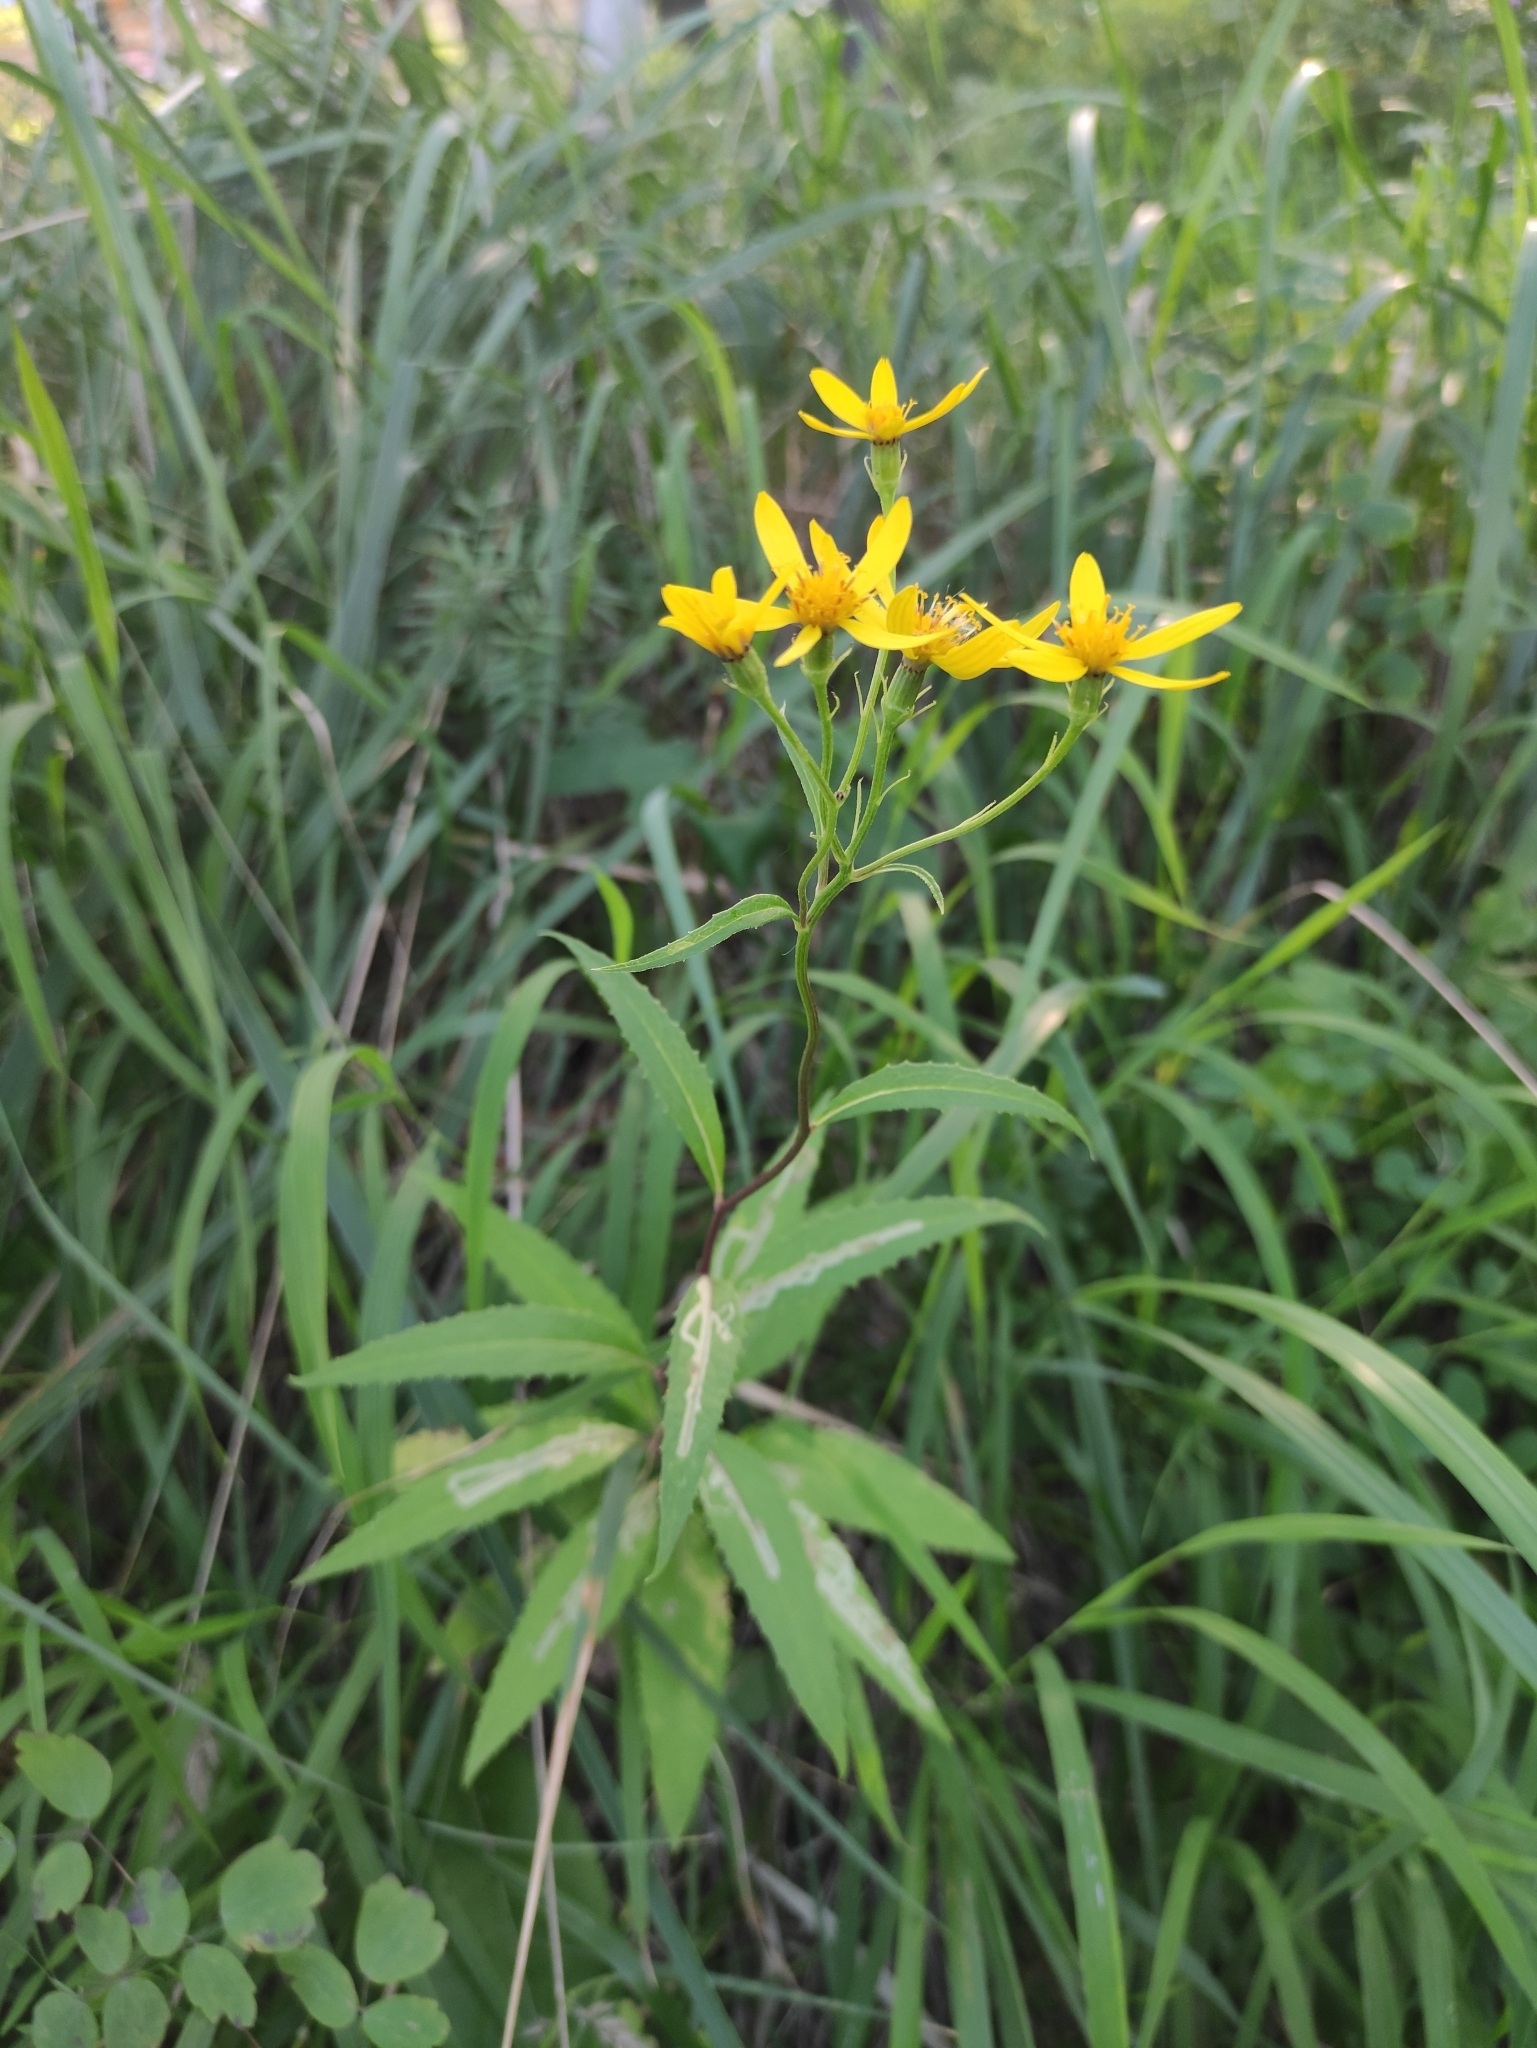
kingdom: Plantae
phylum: Tracheophyta
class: Magnoliopsida
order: Asterales
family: Asteraceae
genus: Senecio
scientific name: Senecio nemorensis
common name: Alpine ragwort
